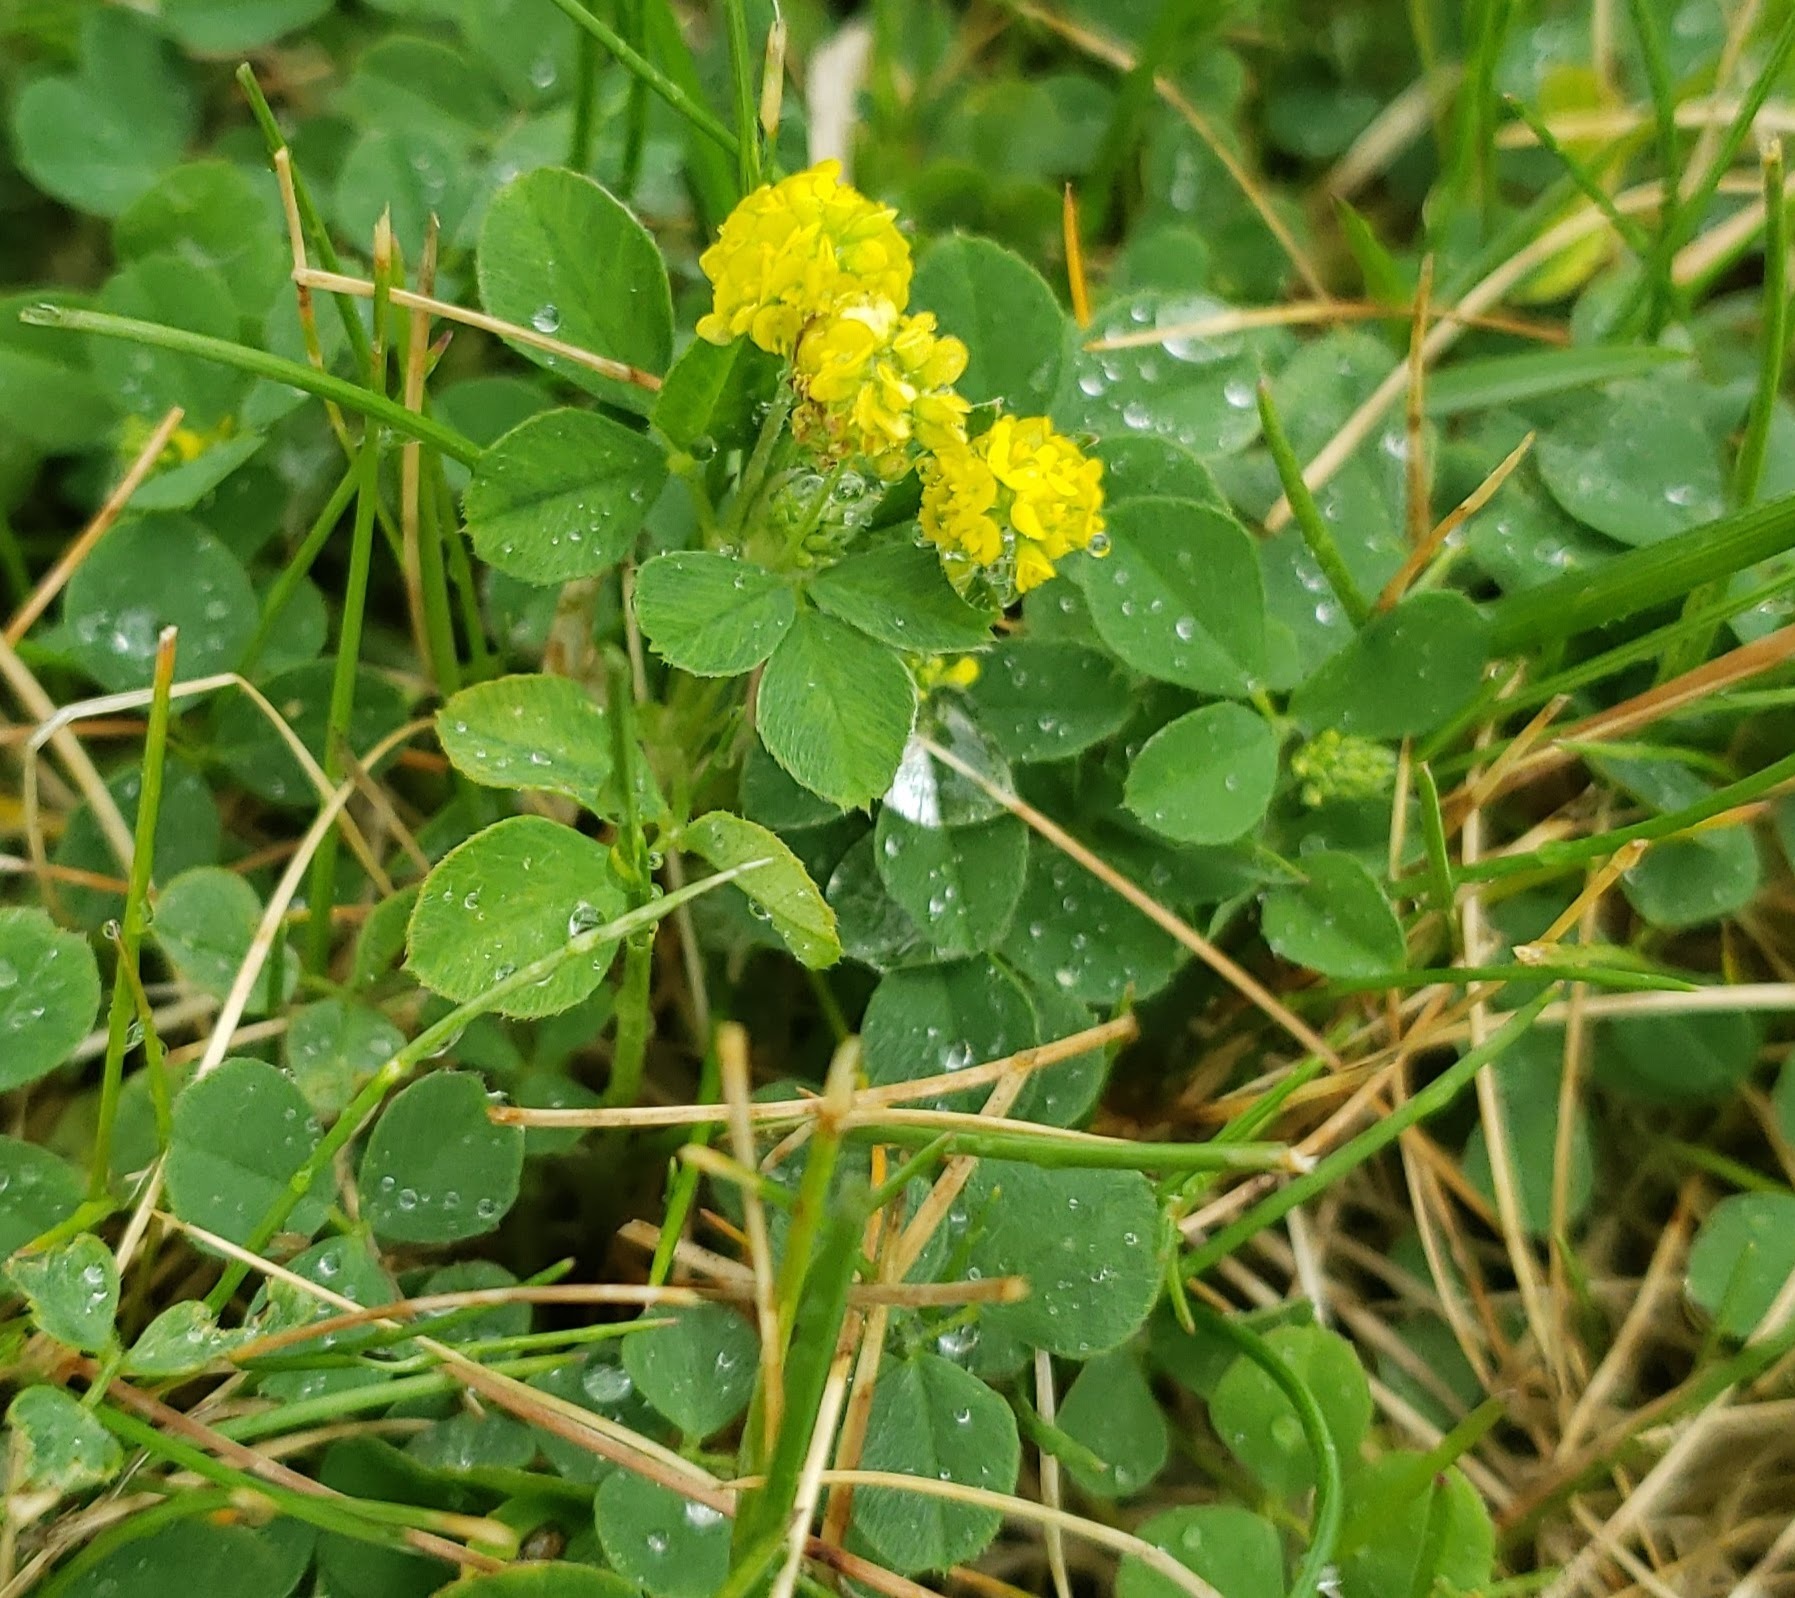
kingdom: Plantae
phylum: Tracheophyta
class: Magnoliopsida
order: Fabales
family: Fabaceae
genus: Medicago
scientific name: Medicago lupulina
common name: Black medick
